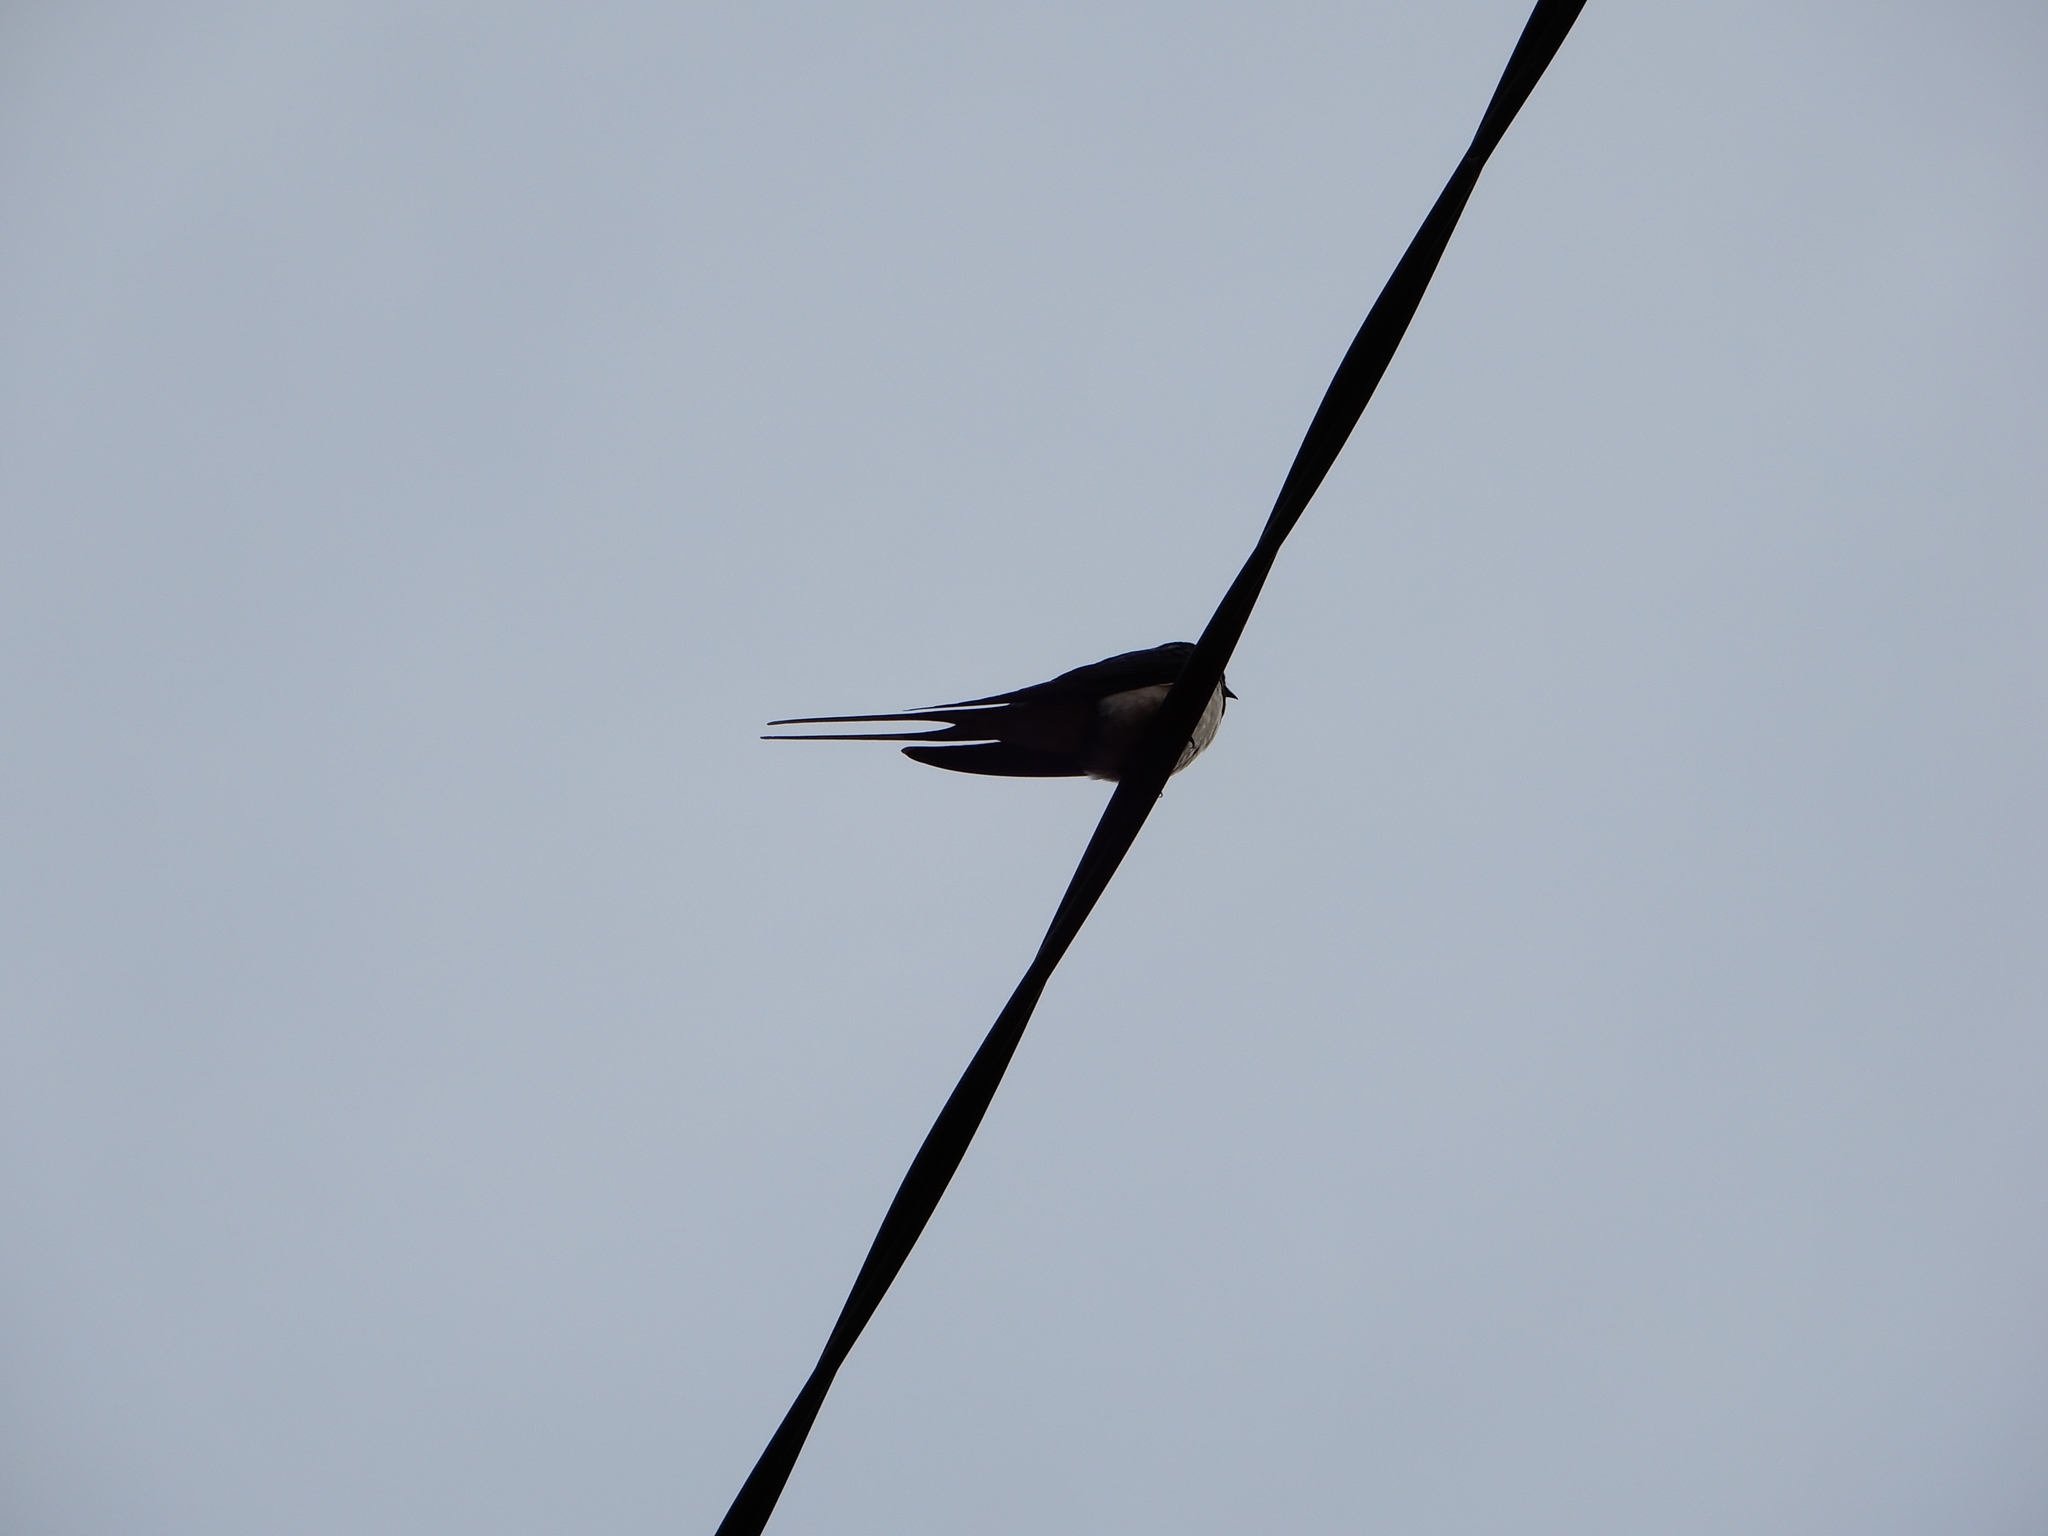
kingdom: Animalia
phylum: Chordata
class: Aves
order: Passeriformes
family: Hirundinidae
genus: Hirundo
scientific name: Hirundo rustica
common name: Barn swallow
